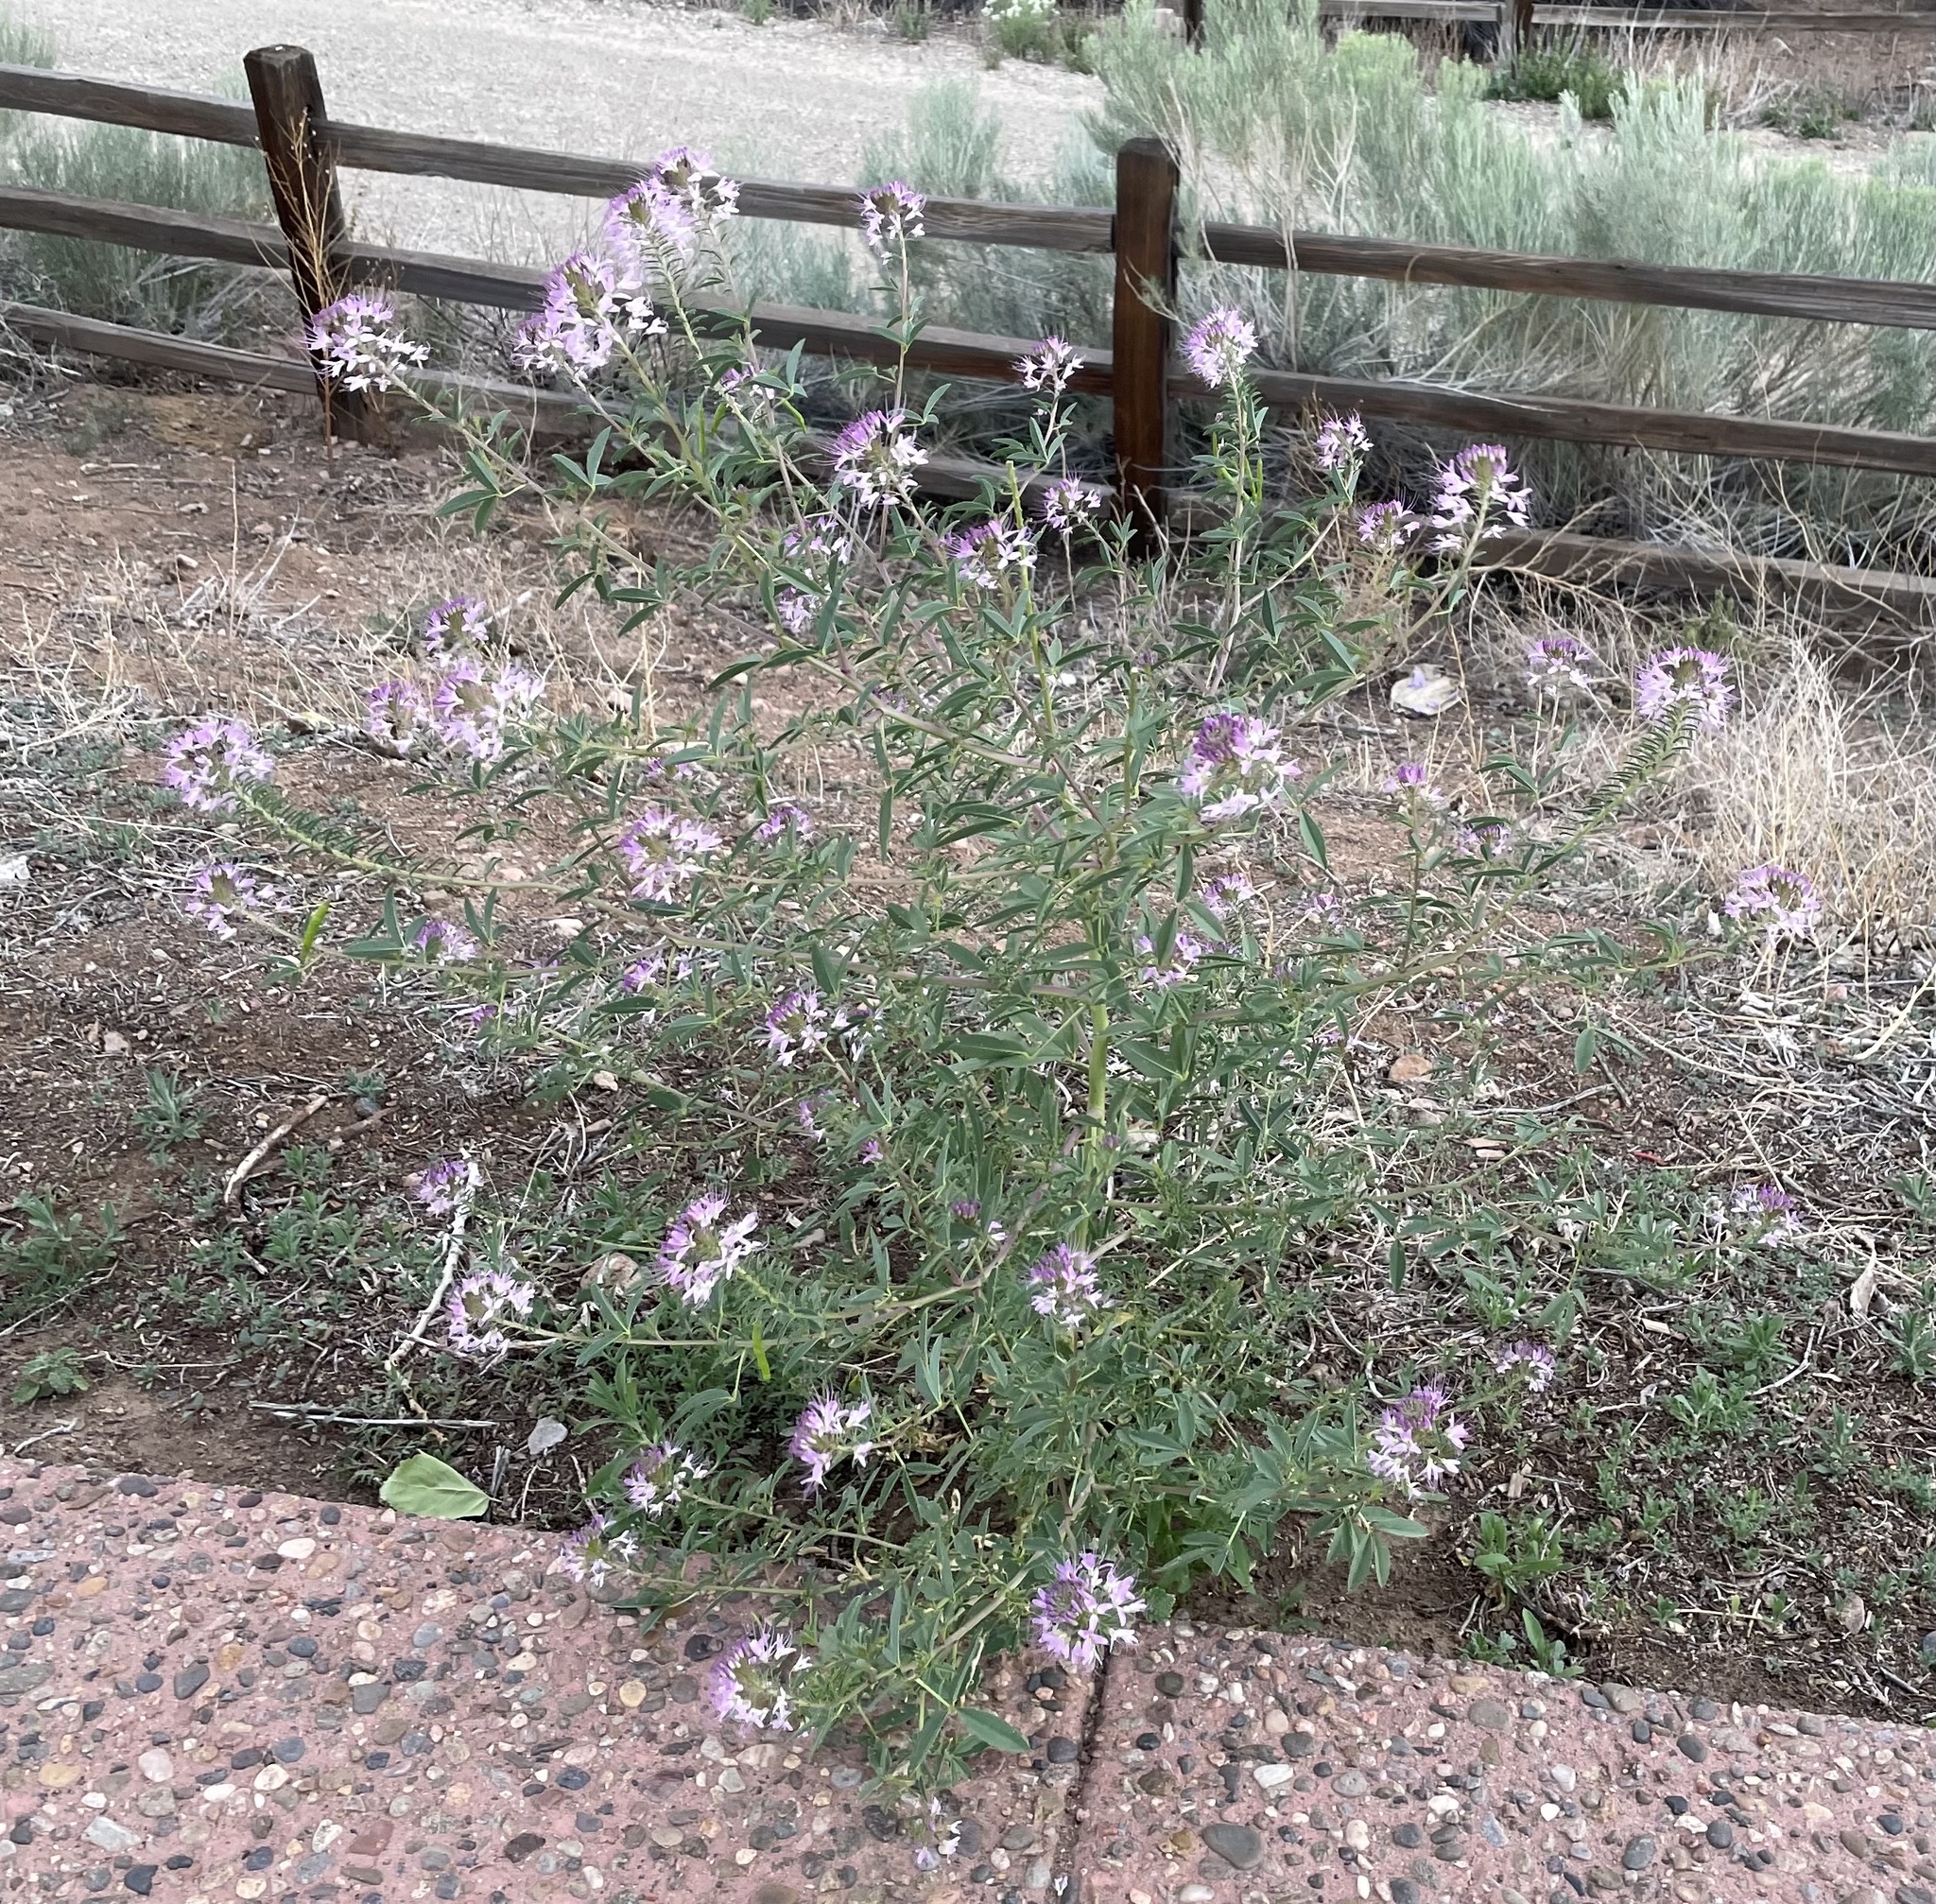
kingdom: Plantae
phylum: Tracheophyta
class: Magnoliopsida
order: Brassicales
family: Cleomaceae
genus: Cleomella
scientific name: Cleomella serrulata
